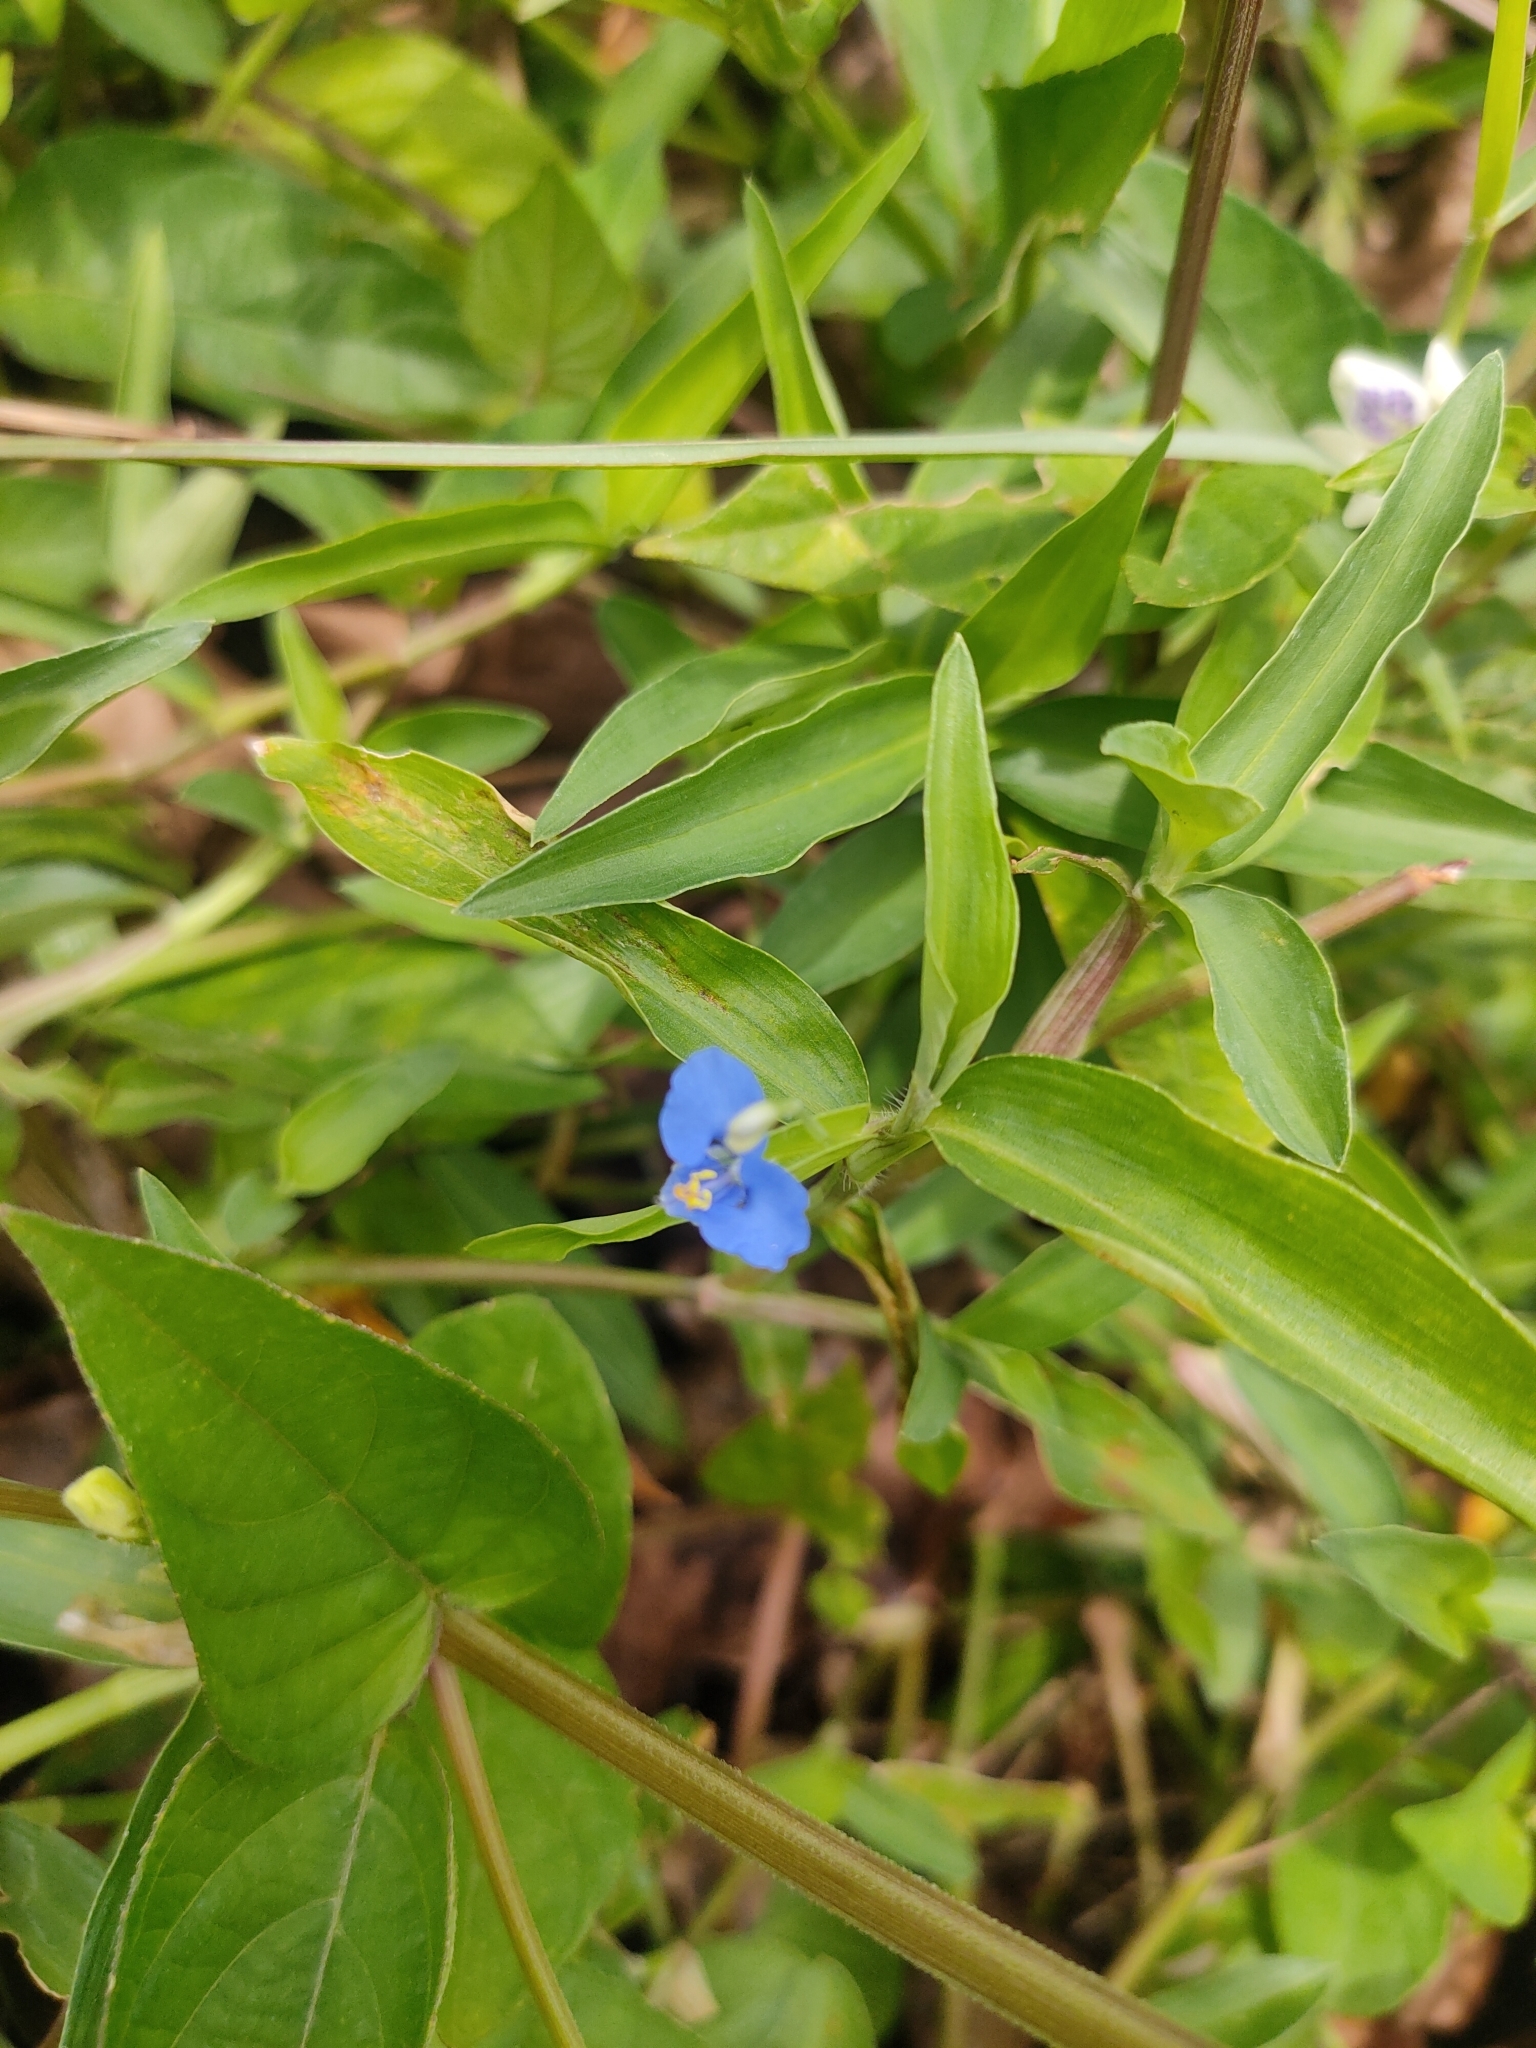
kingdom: Plantae
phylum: Tracheophyta
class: Liliopsida
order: Commelinales
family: Commelinaceae
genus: Commelina
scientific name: Commelina diffusa
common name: Climbing dayflower
